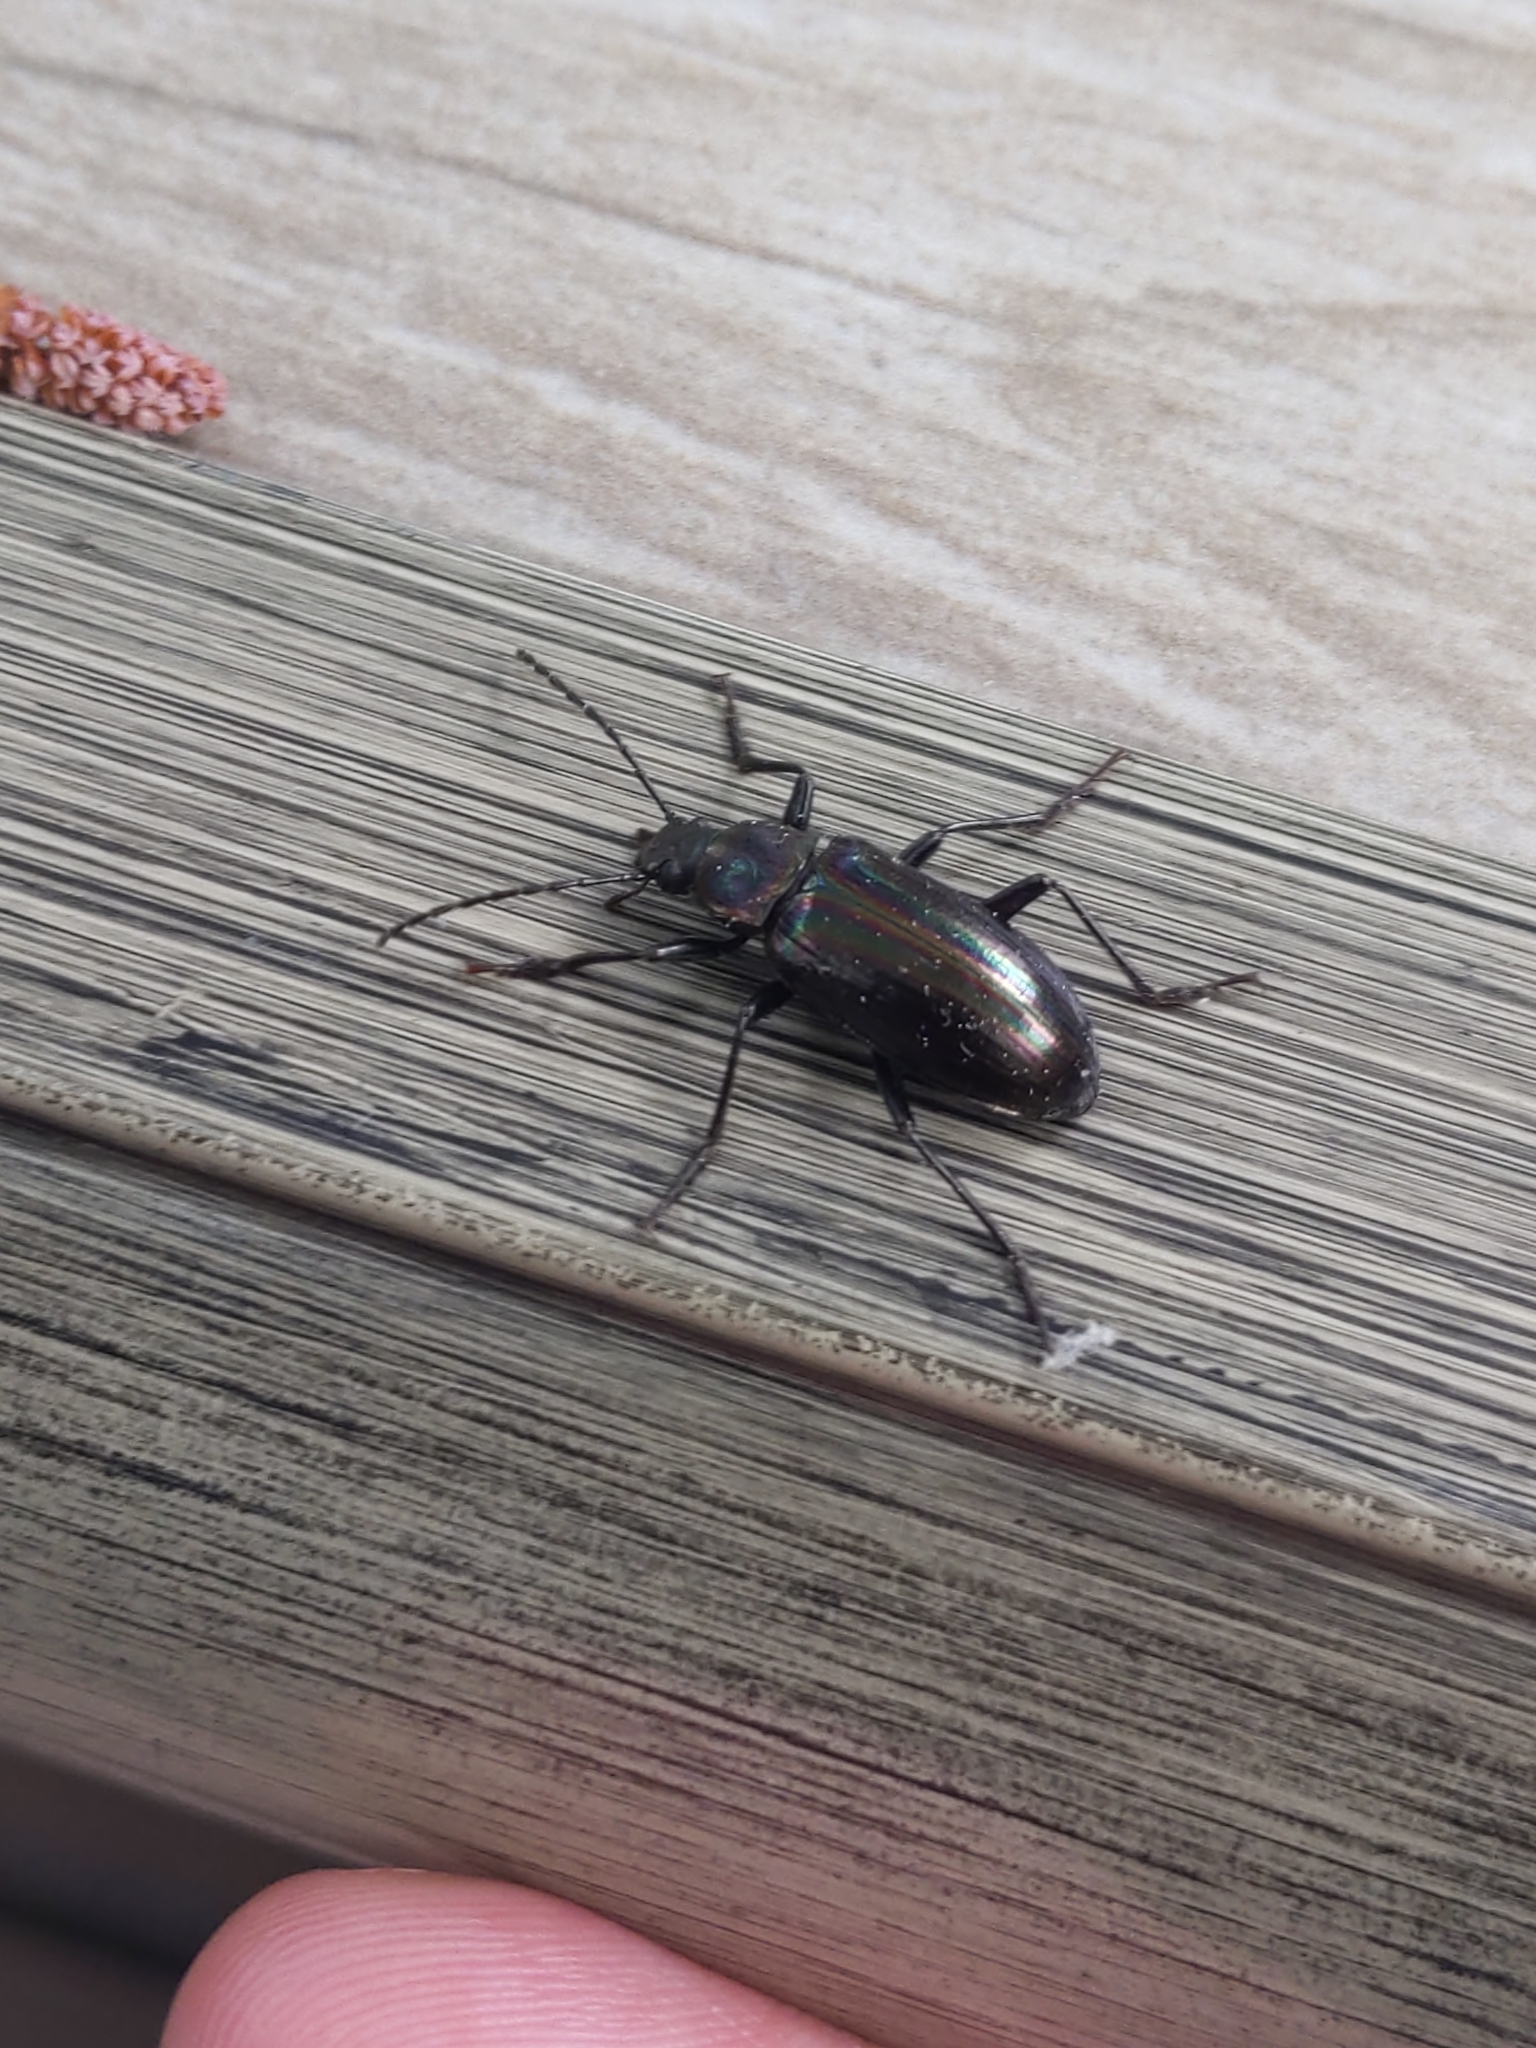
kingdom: Animalia
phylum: Arthropoda
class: Insecta
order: Coleoptera
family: Tenebrionidae
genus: Tarpela
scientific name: Tarpela micans
